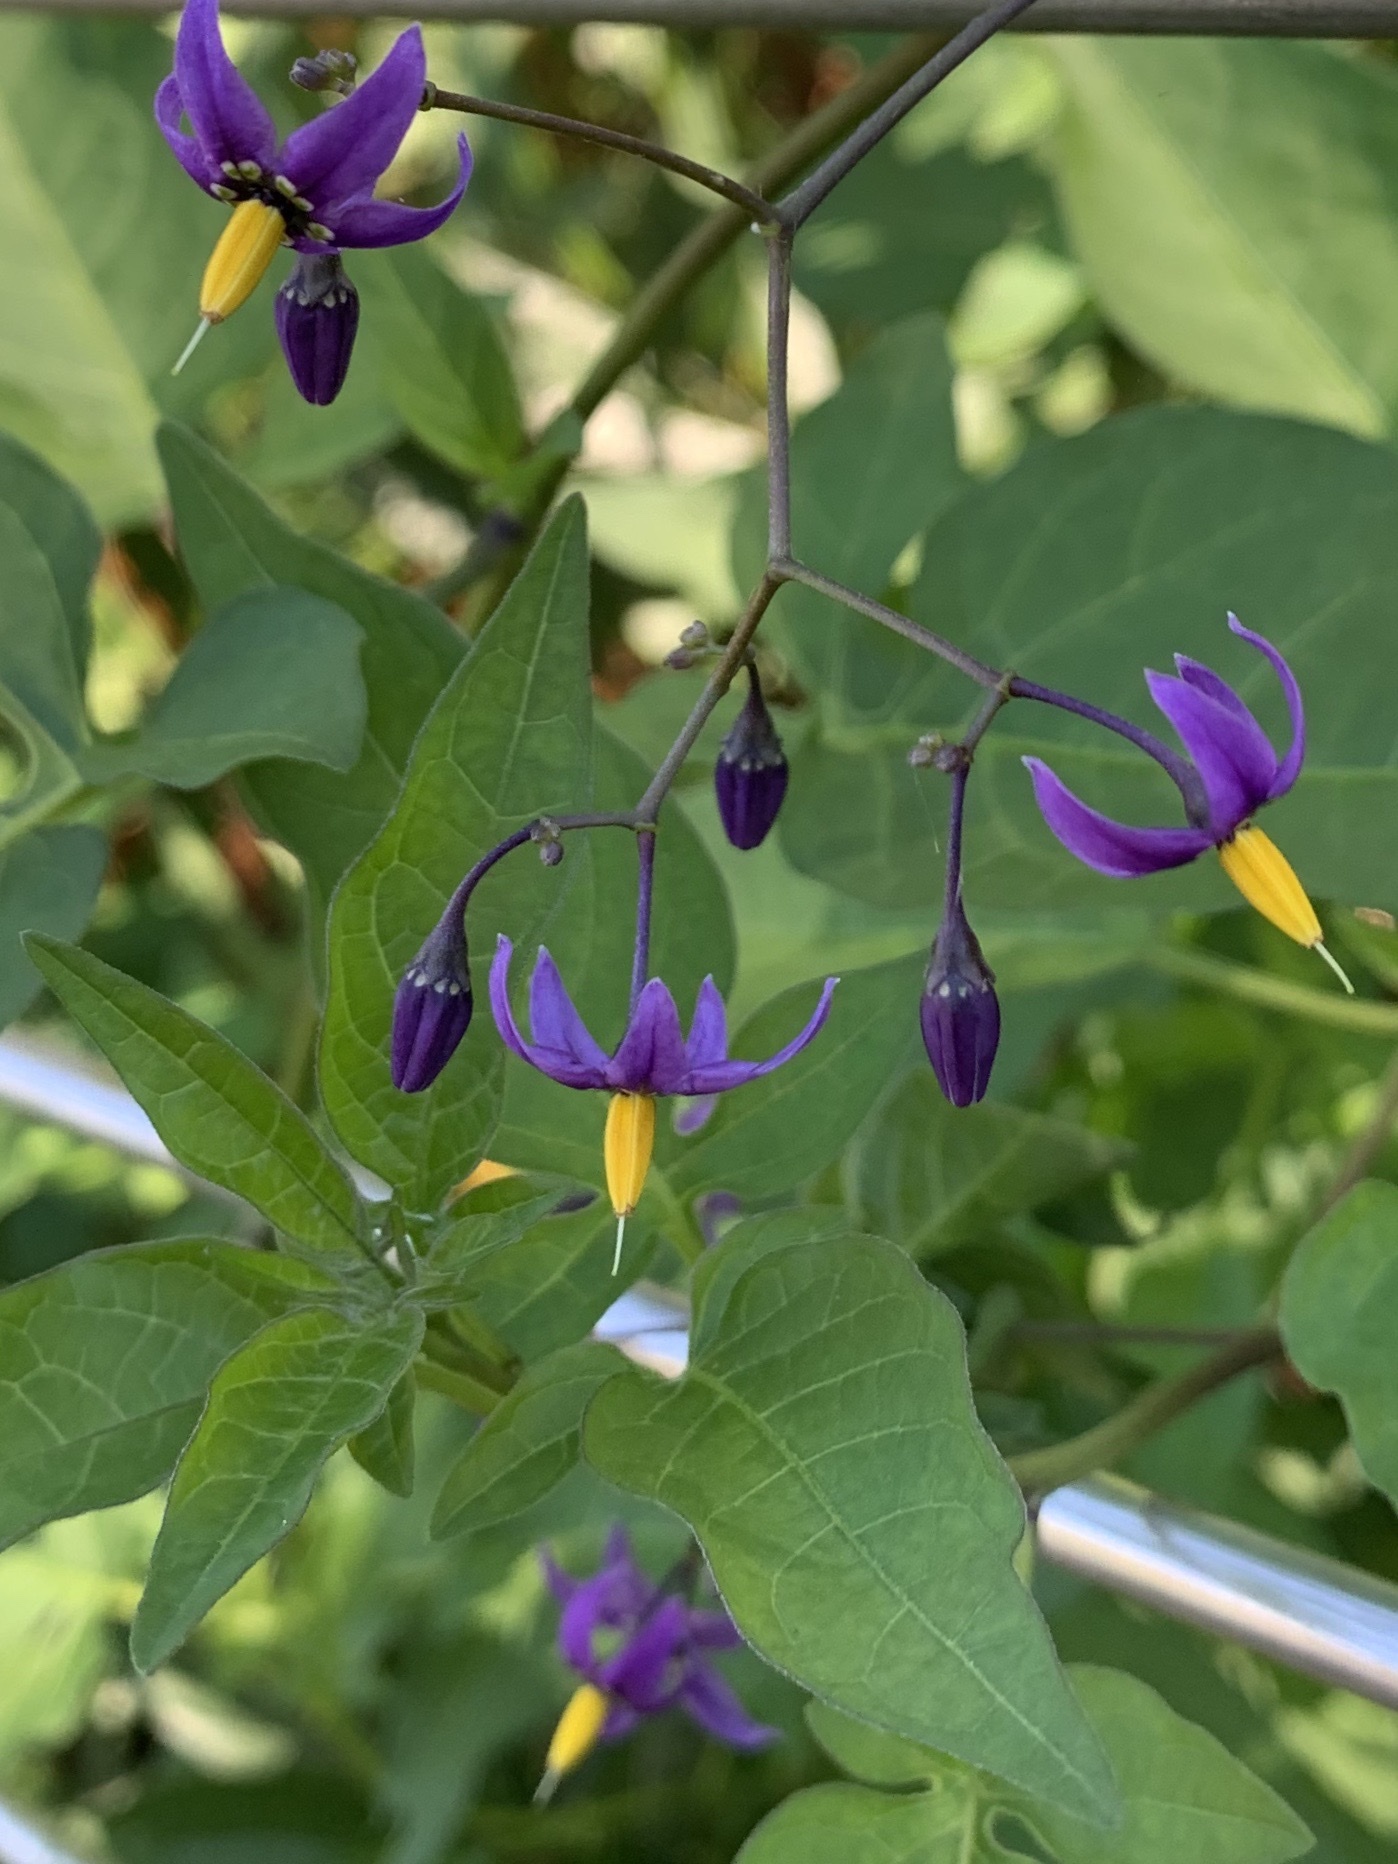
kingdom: Plantae
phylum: Tracheophyta
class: Magnoliopsida
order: Solanales
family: Solanaceae
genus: Solanum
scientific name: Solanum dulcamara
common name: Climbing nightshade
